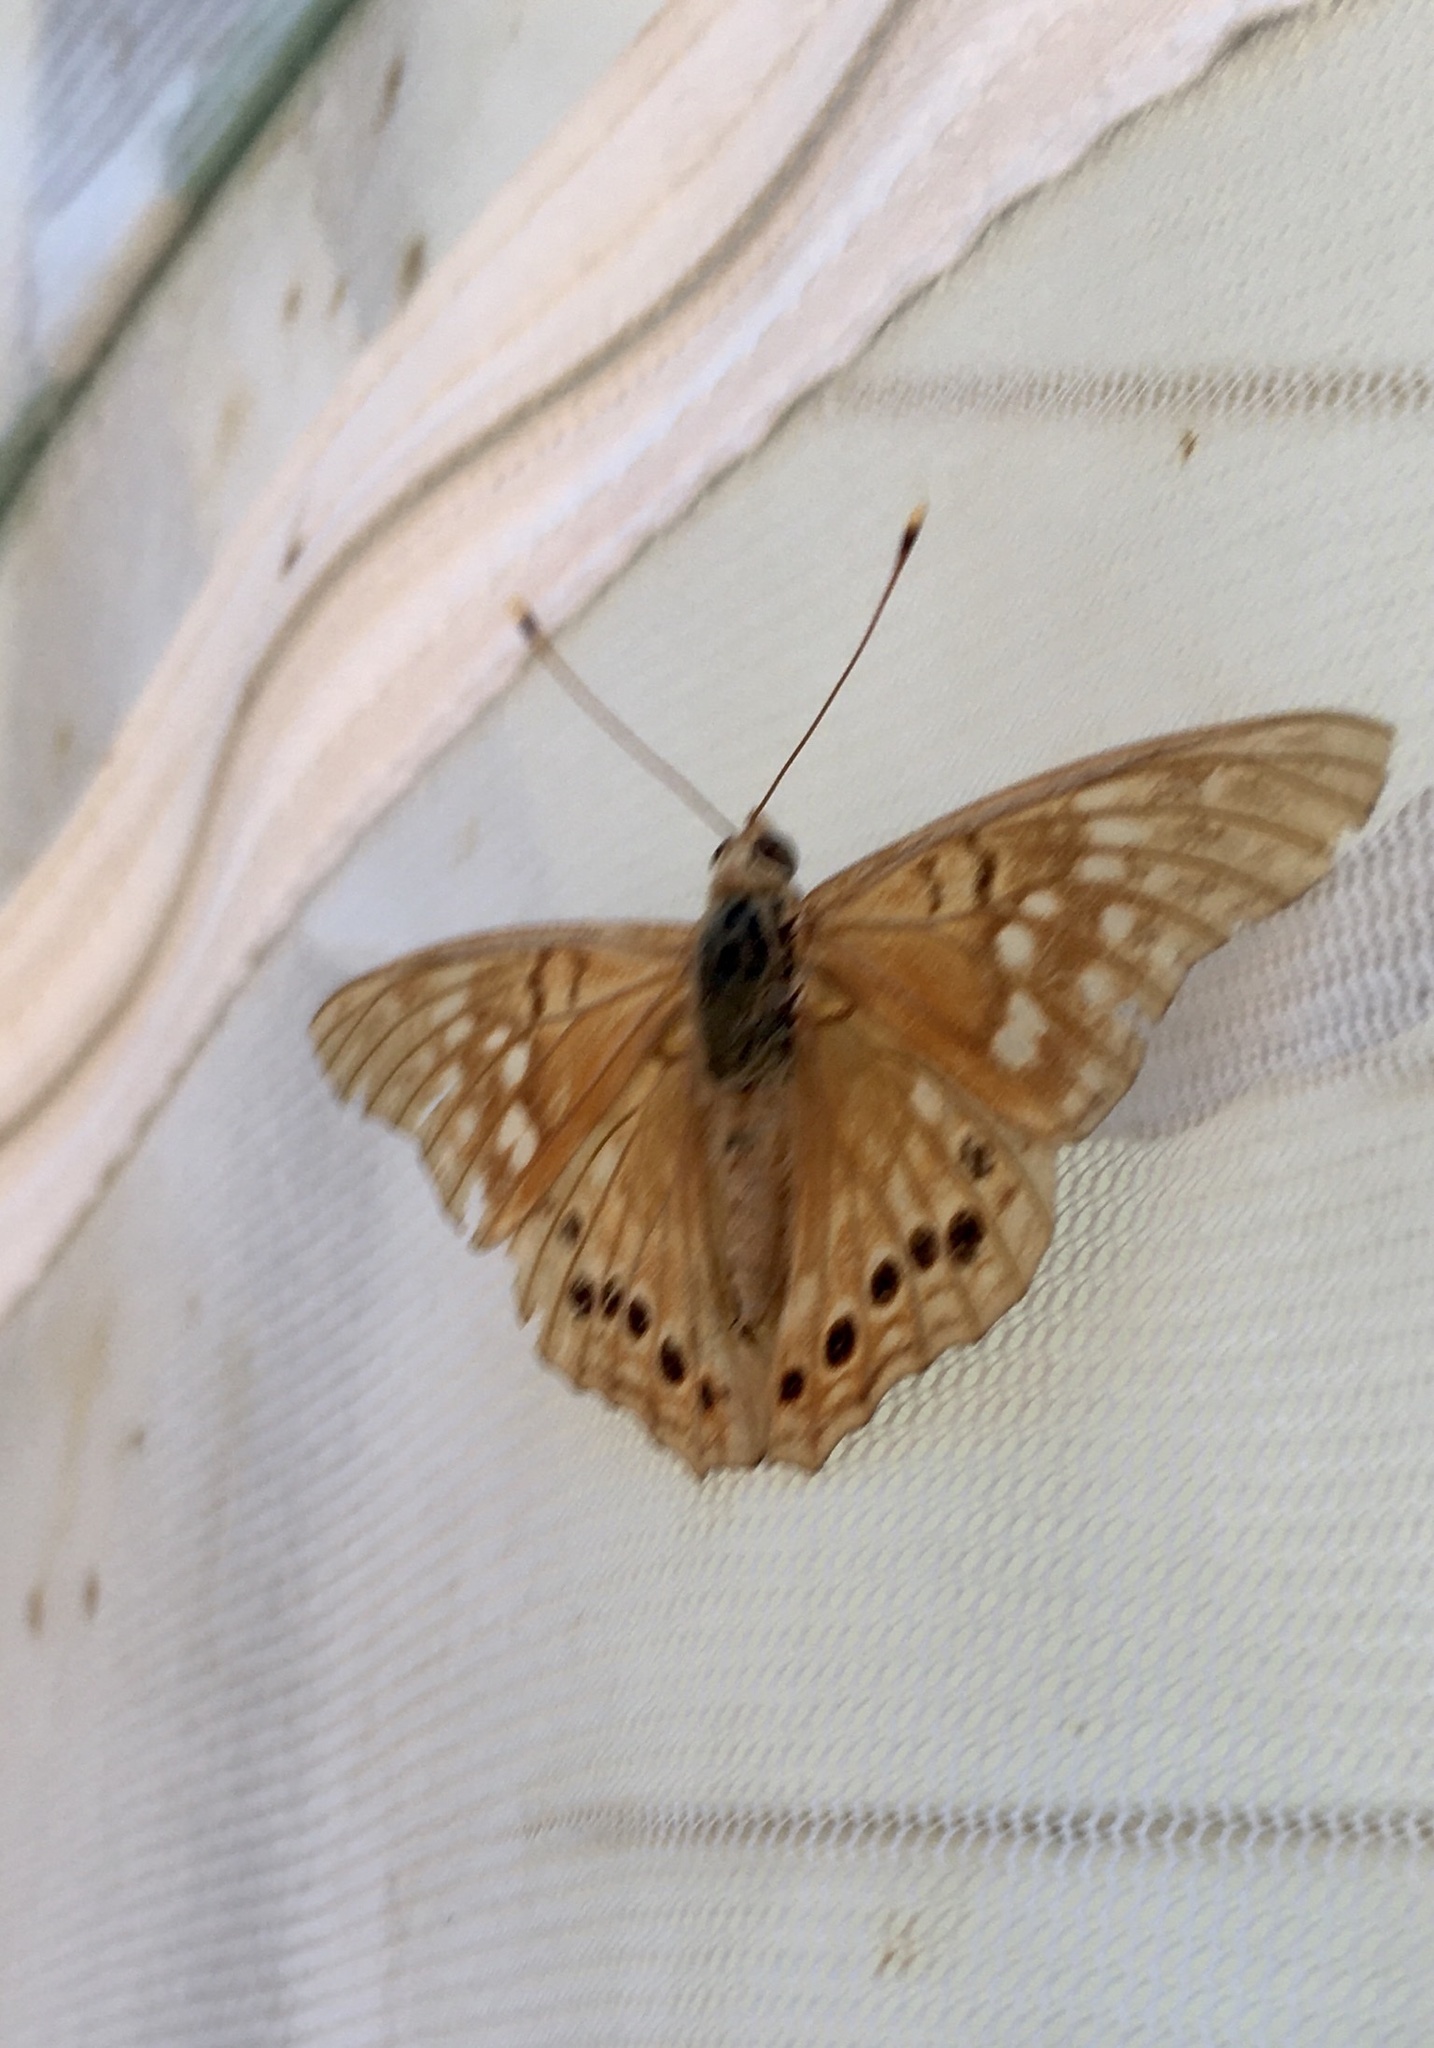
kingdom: Animalia
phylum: Arthropoda
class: Insecta
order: Lepidoptera
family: Nymphalidae
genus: Asterocampa
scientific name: Asterocampa clyton
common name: Tawny emperor
